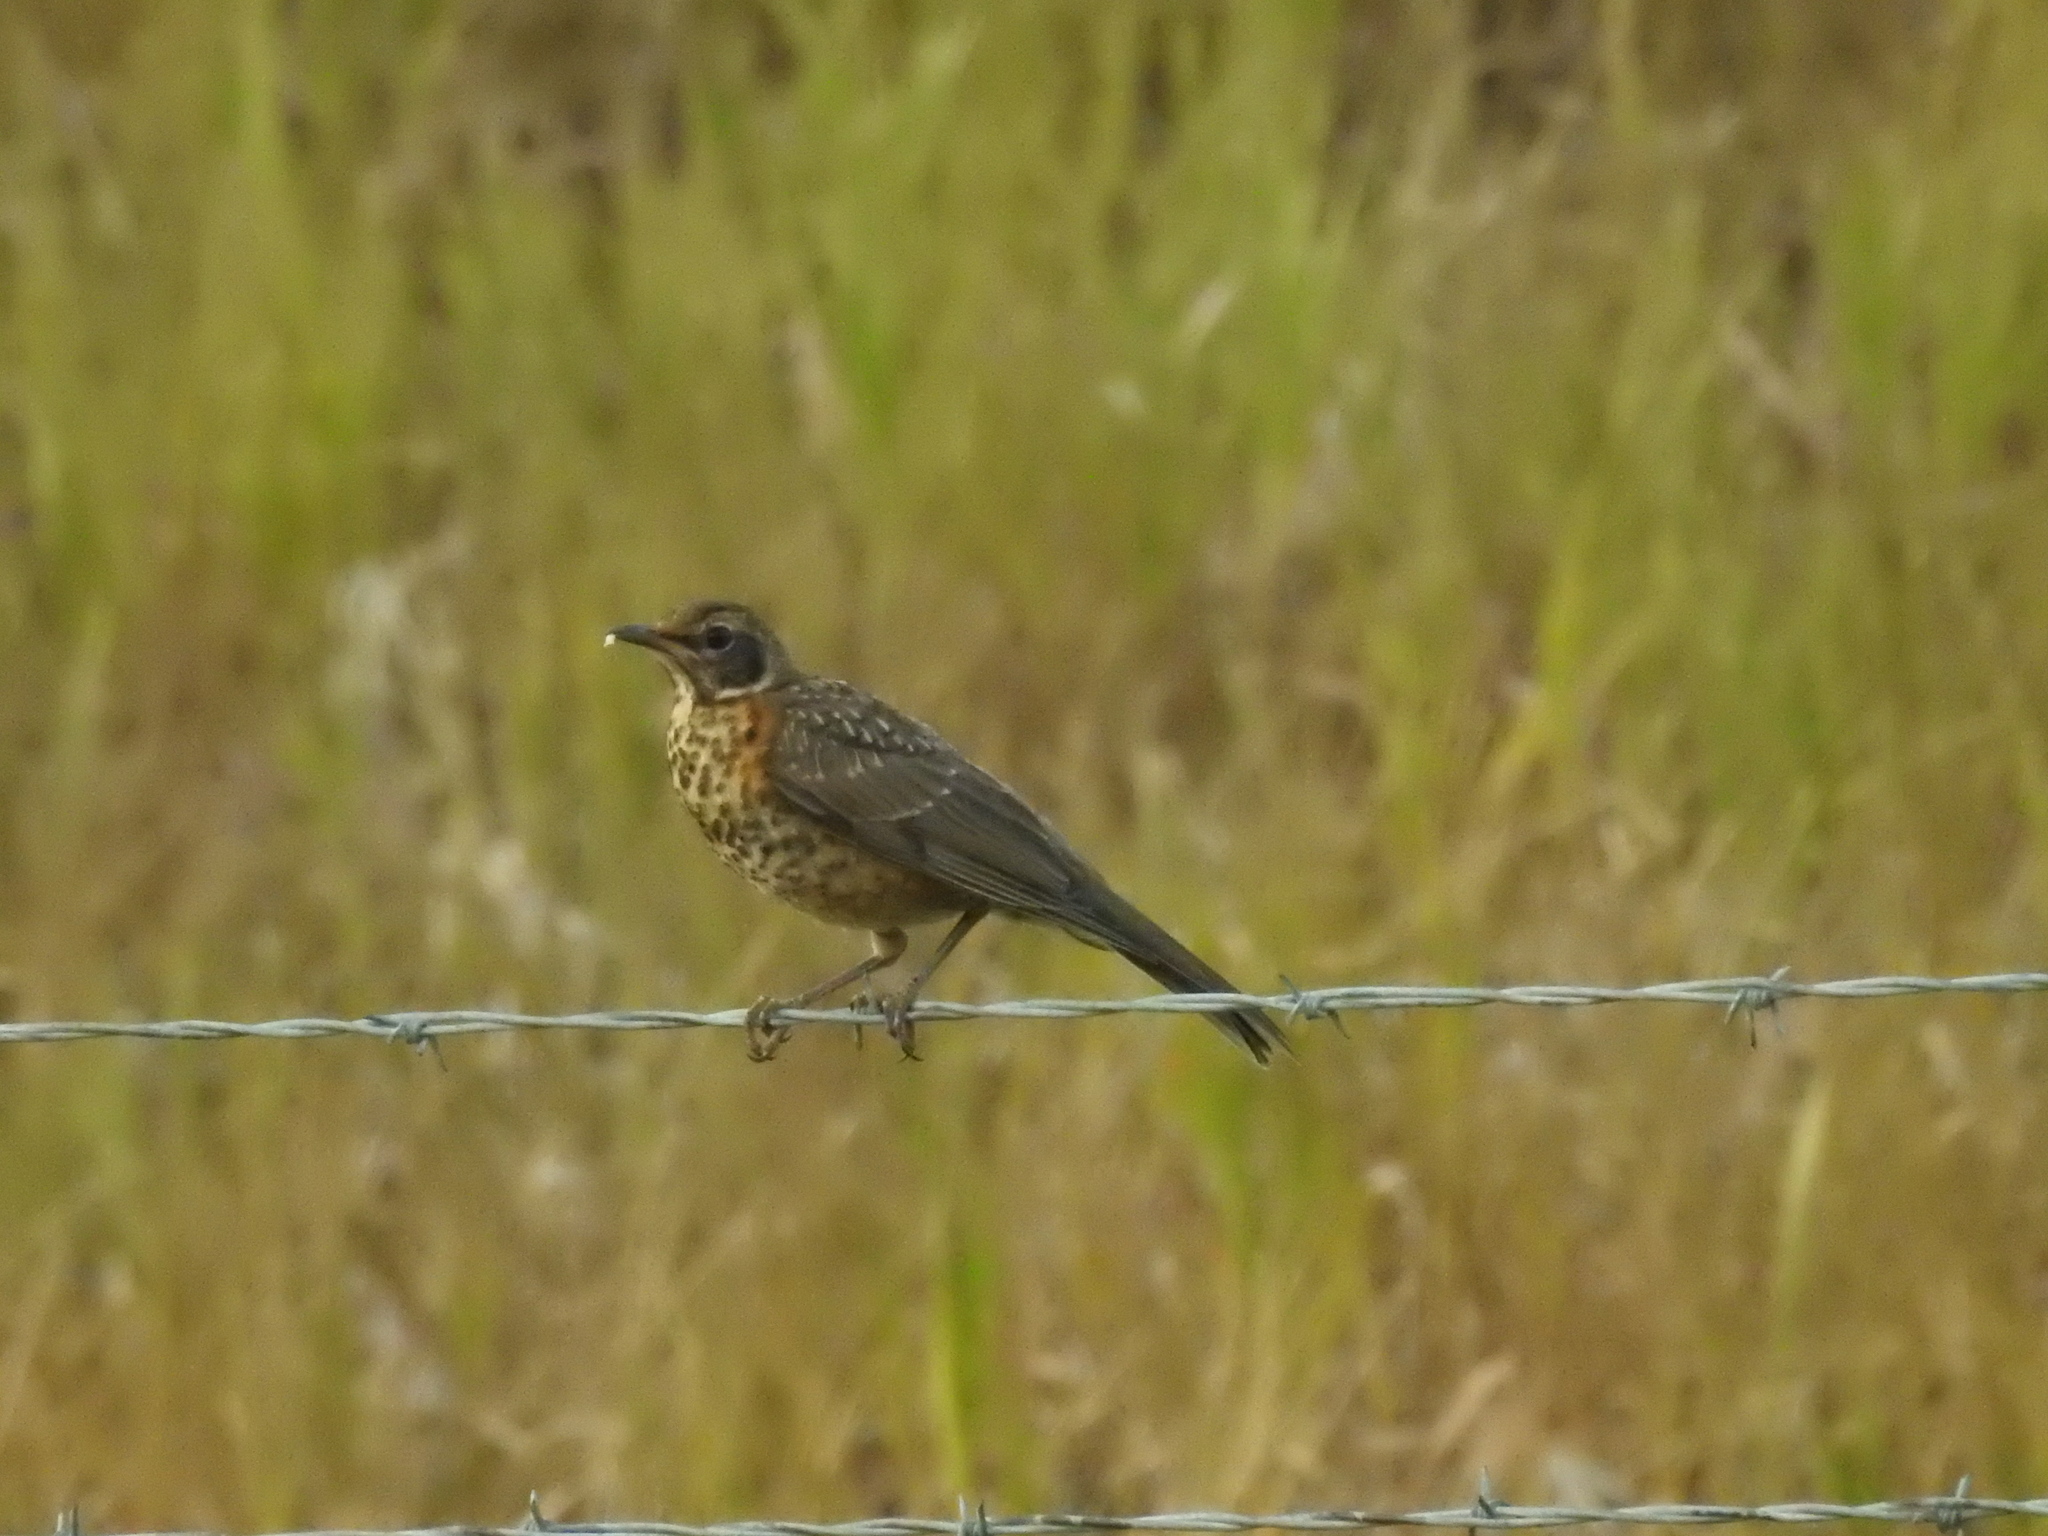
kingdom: Animalia
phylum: Chordata
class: Aves
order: Passeriformes
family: Turdidae
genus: Turdus
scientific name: Turdus migratorius
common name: American robin
